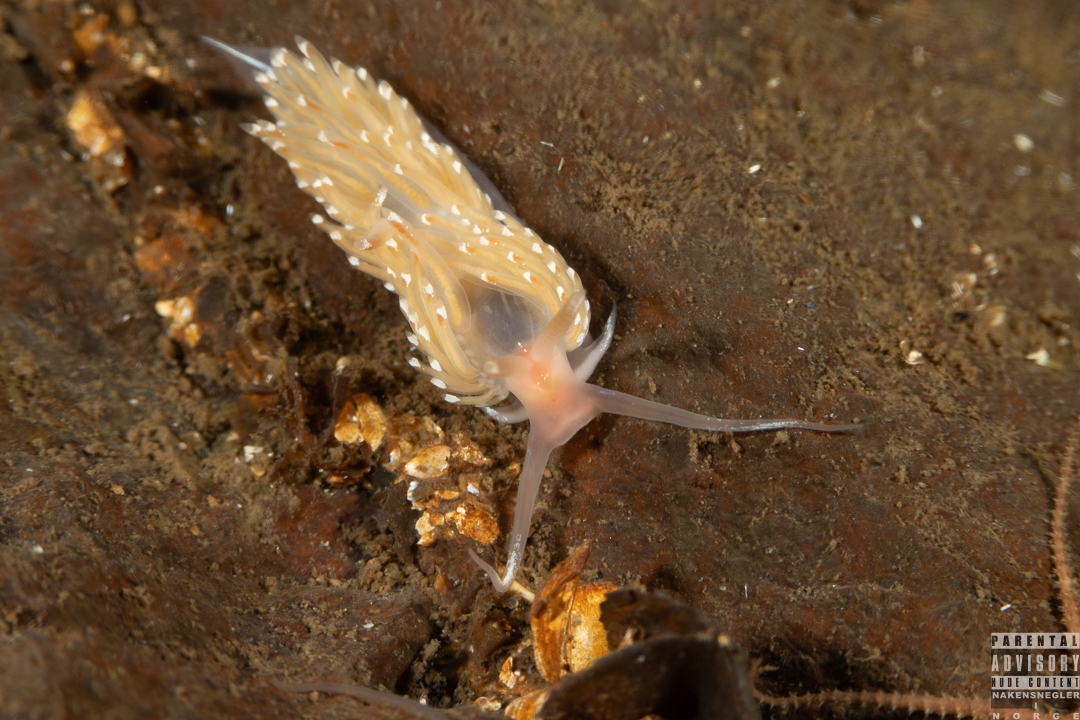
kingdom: Animalia
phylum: Mollusca
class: Gastropoda
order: Nudibranchia
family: Facelinidae
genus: Facelina
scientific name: Facelina bostoniensis
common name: Boston facelina
